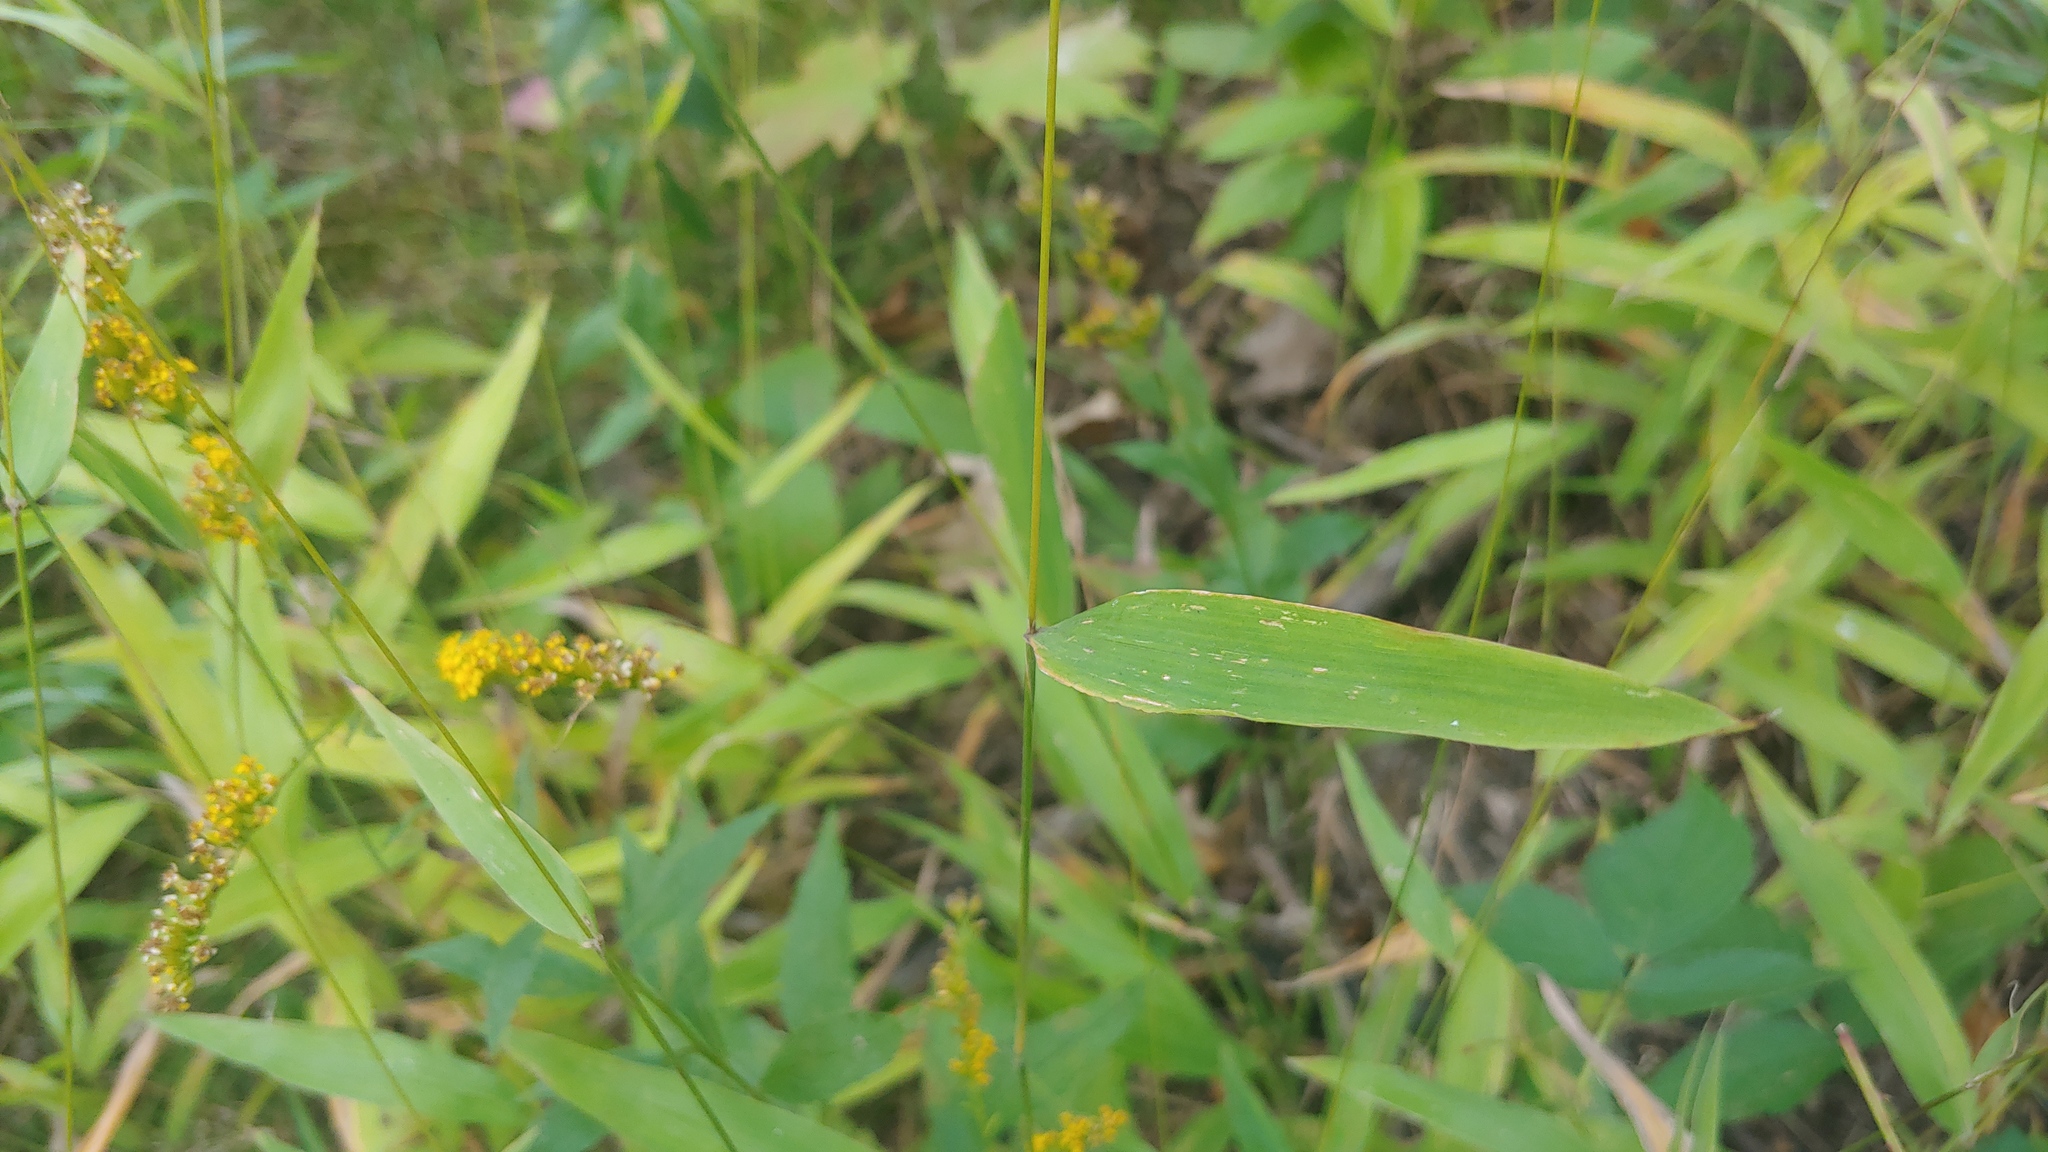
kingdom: Plantae
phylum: Tracheophyta
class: Liliopsida
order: Poales
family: Poaceae
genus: Brachyelytrum
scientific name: Brachyelytrum erectum
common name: Bearded shorthusk
